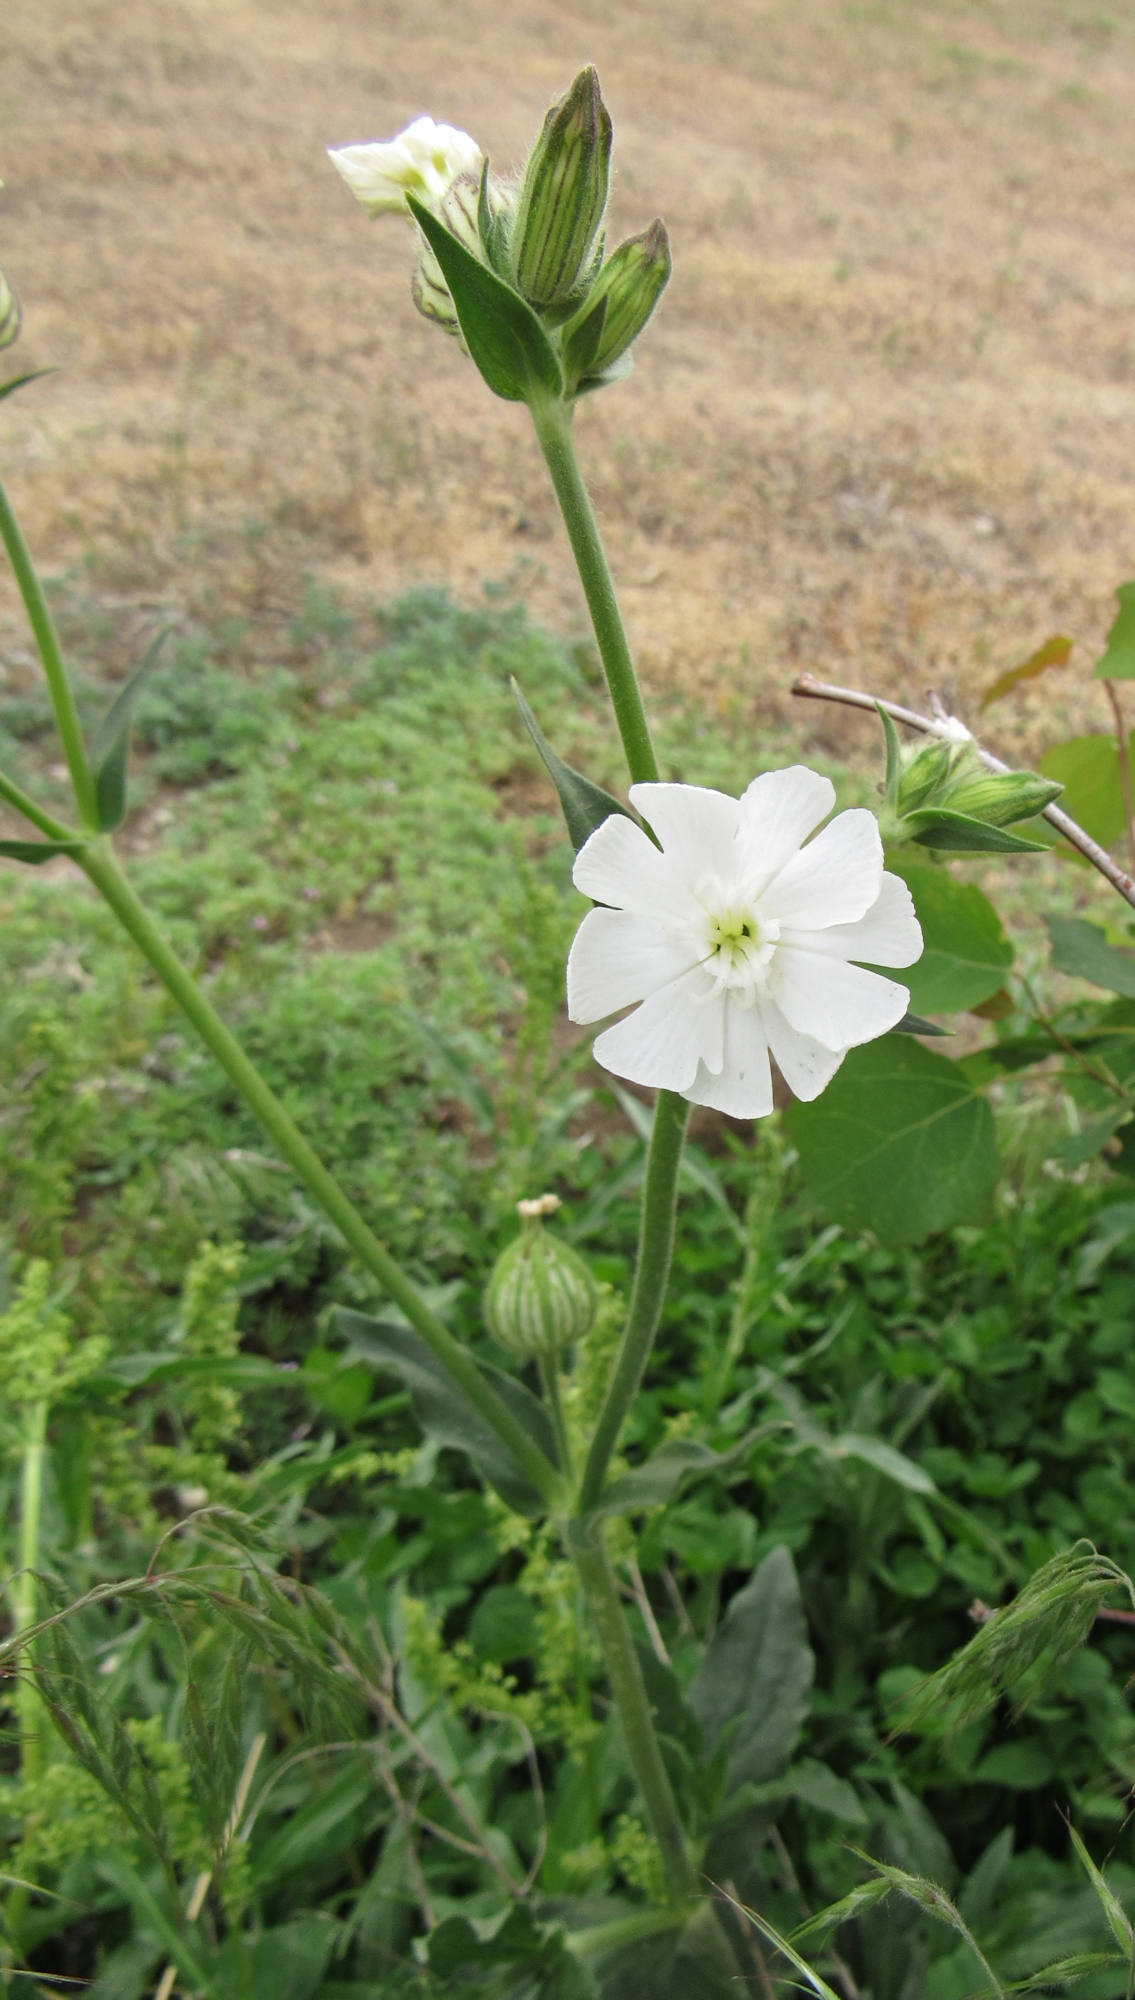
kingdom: Plantae
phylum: Tracheophyta
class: Magnoliopsida
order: Caryophyllales
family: Caryophyllaceae
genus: Silene
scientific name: Silene latifolia
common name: White campion
